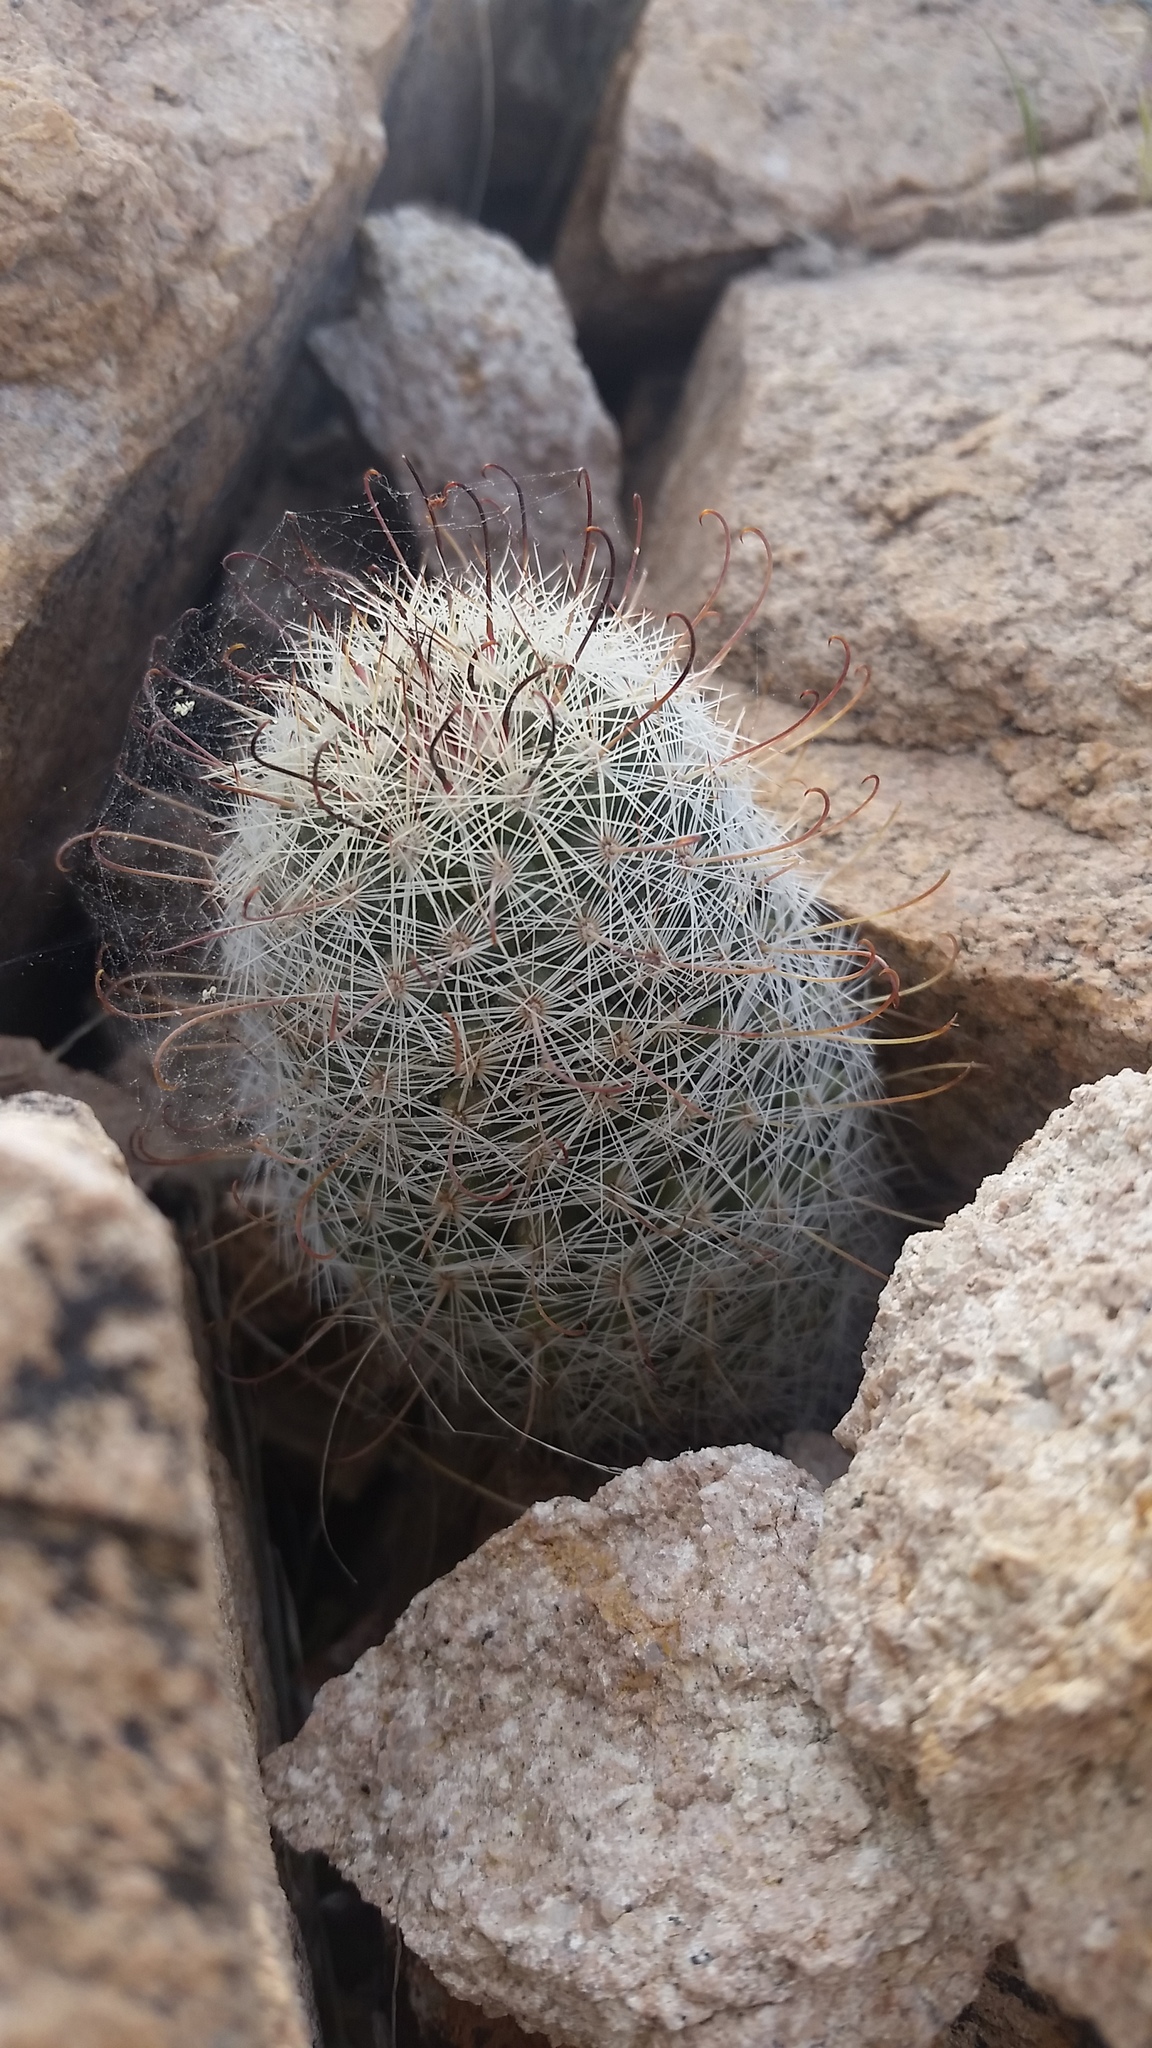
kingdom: Plantae
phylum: Tracheophyta
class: Magnoliopsida
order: Caryophyllales
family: Cactaceae
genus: Cochemiea
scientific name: Cochemiea grahamii
